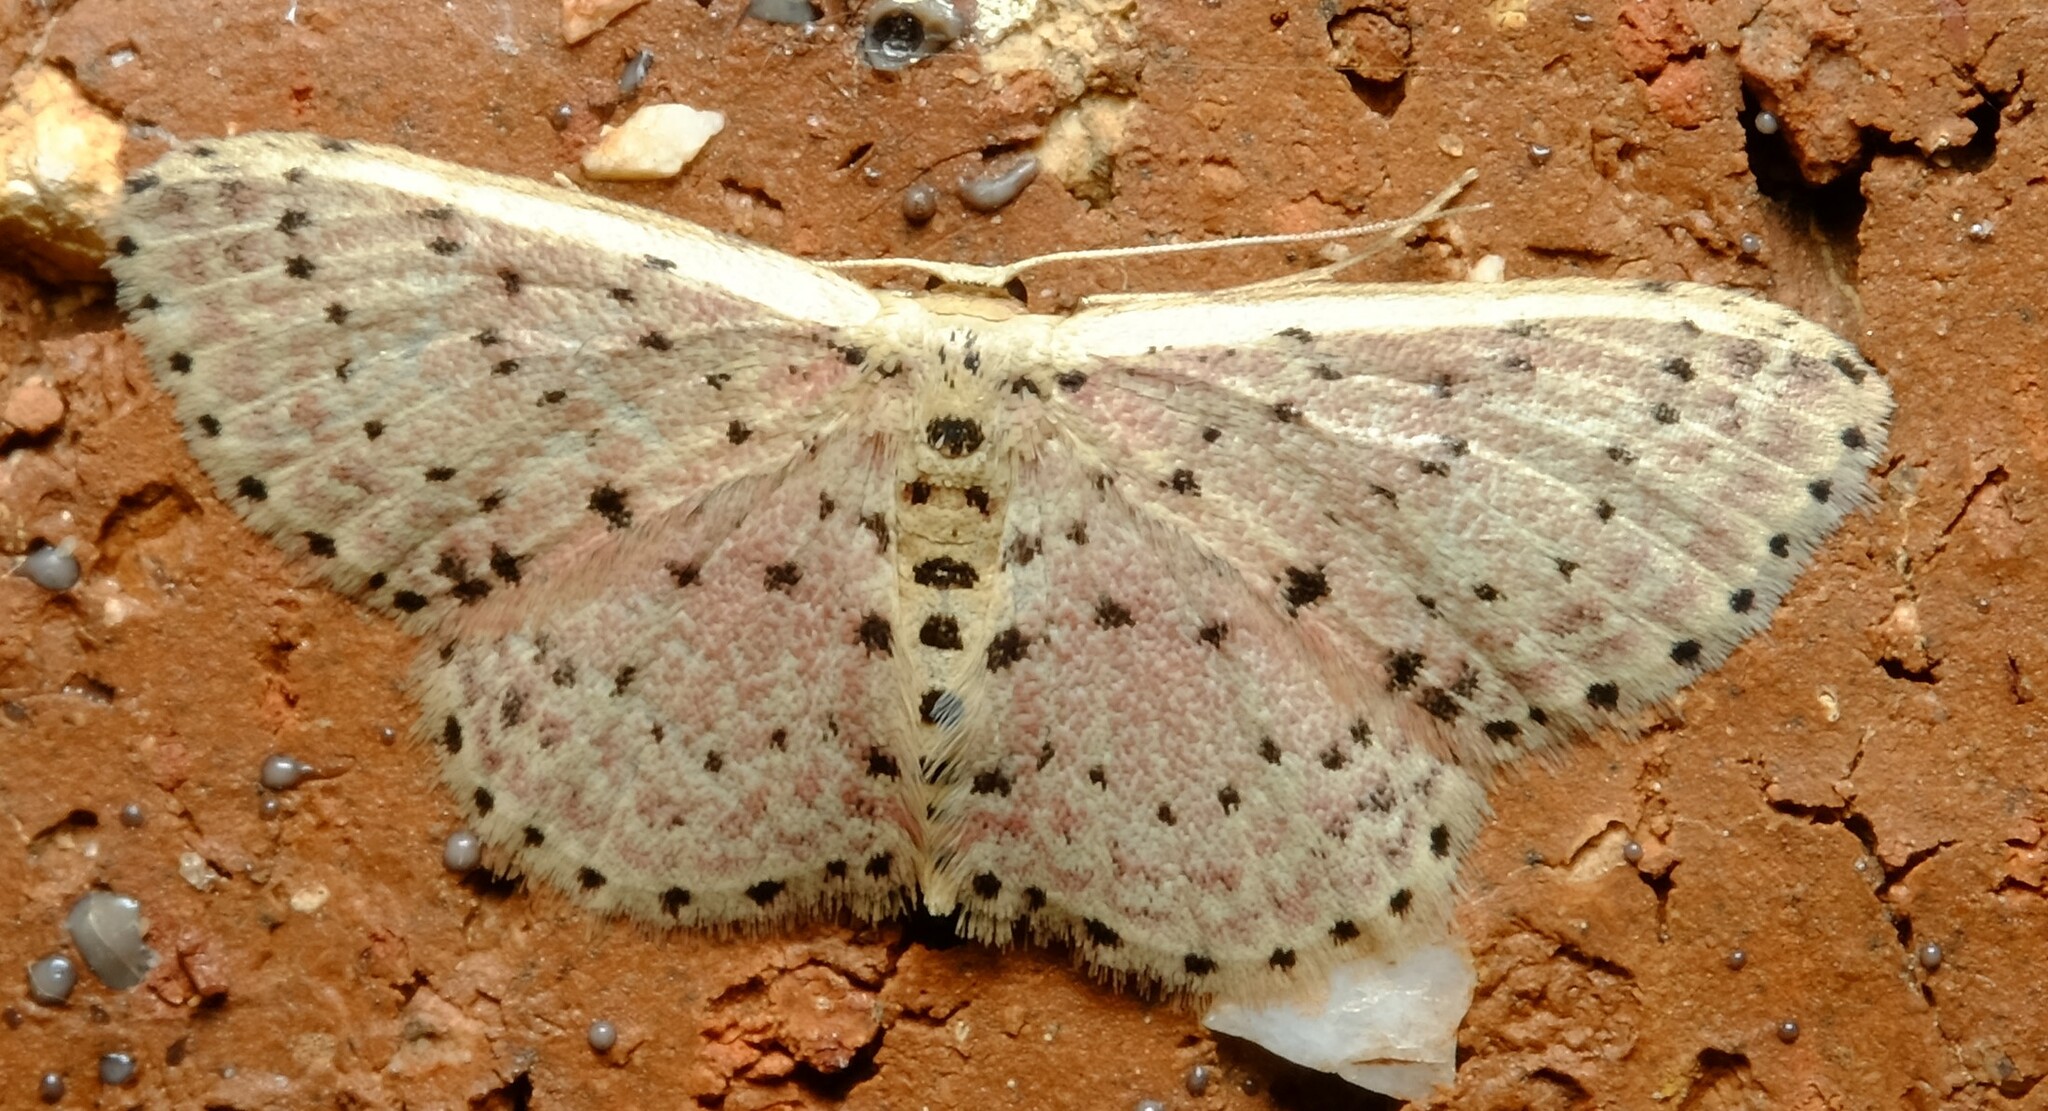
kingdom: Animalia
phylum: Arthropoda
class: Insecta
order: Lepidoptera
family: Geometridae
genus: Idaea
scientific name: Idaea punctatissima
